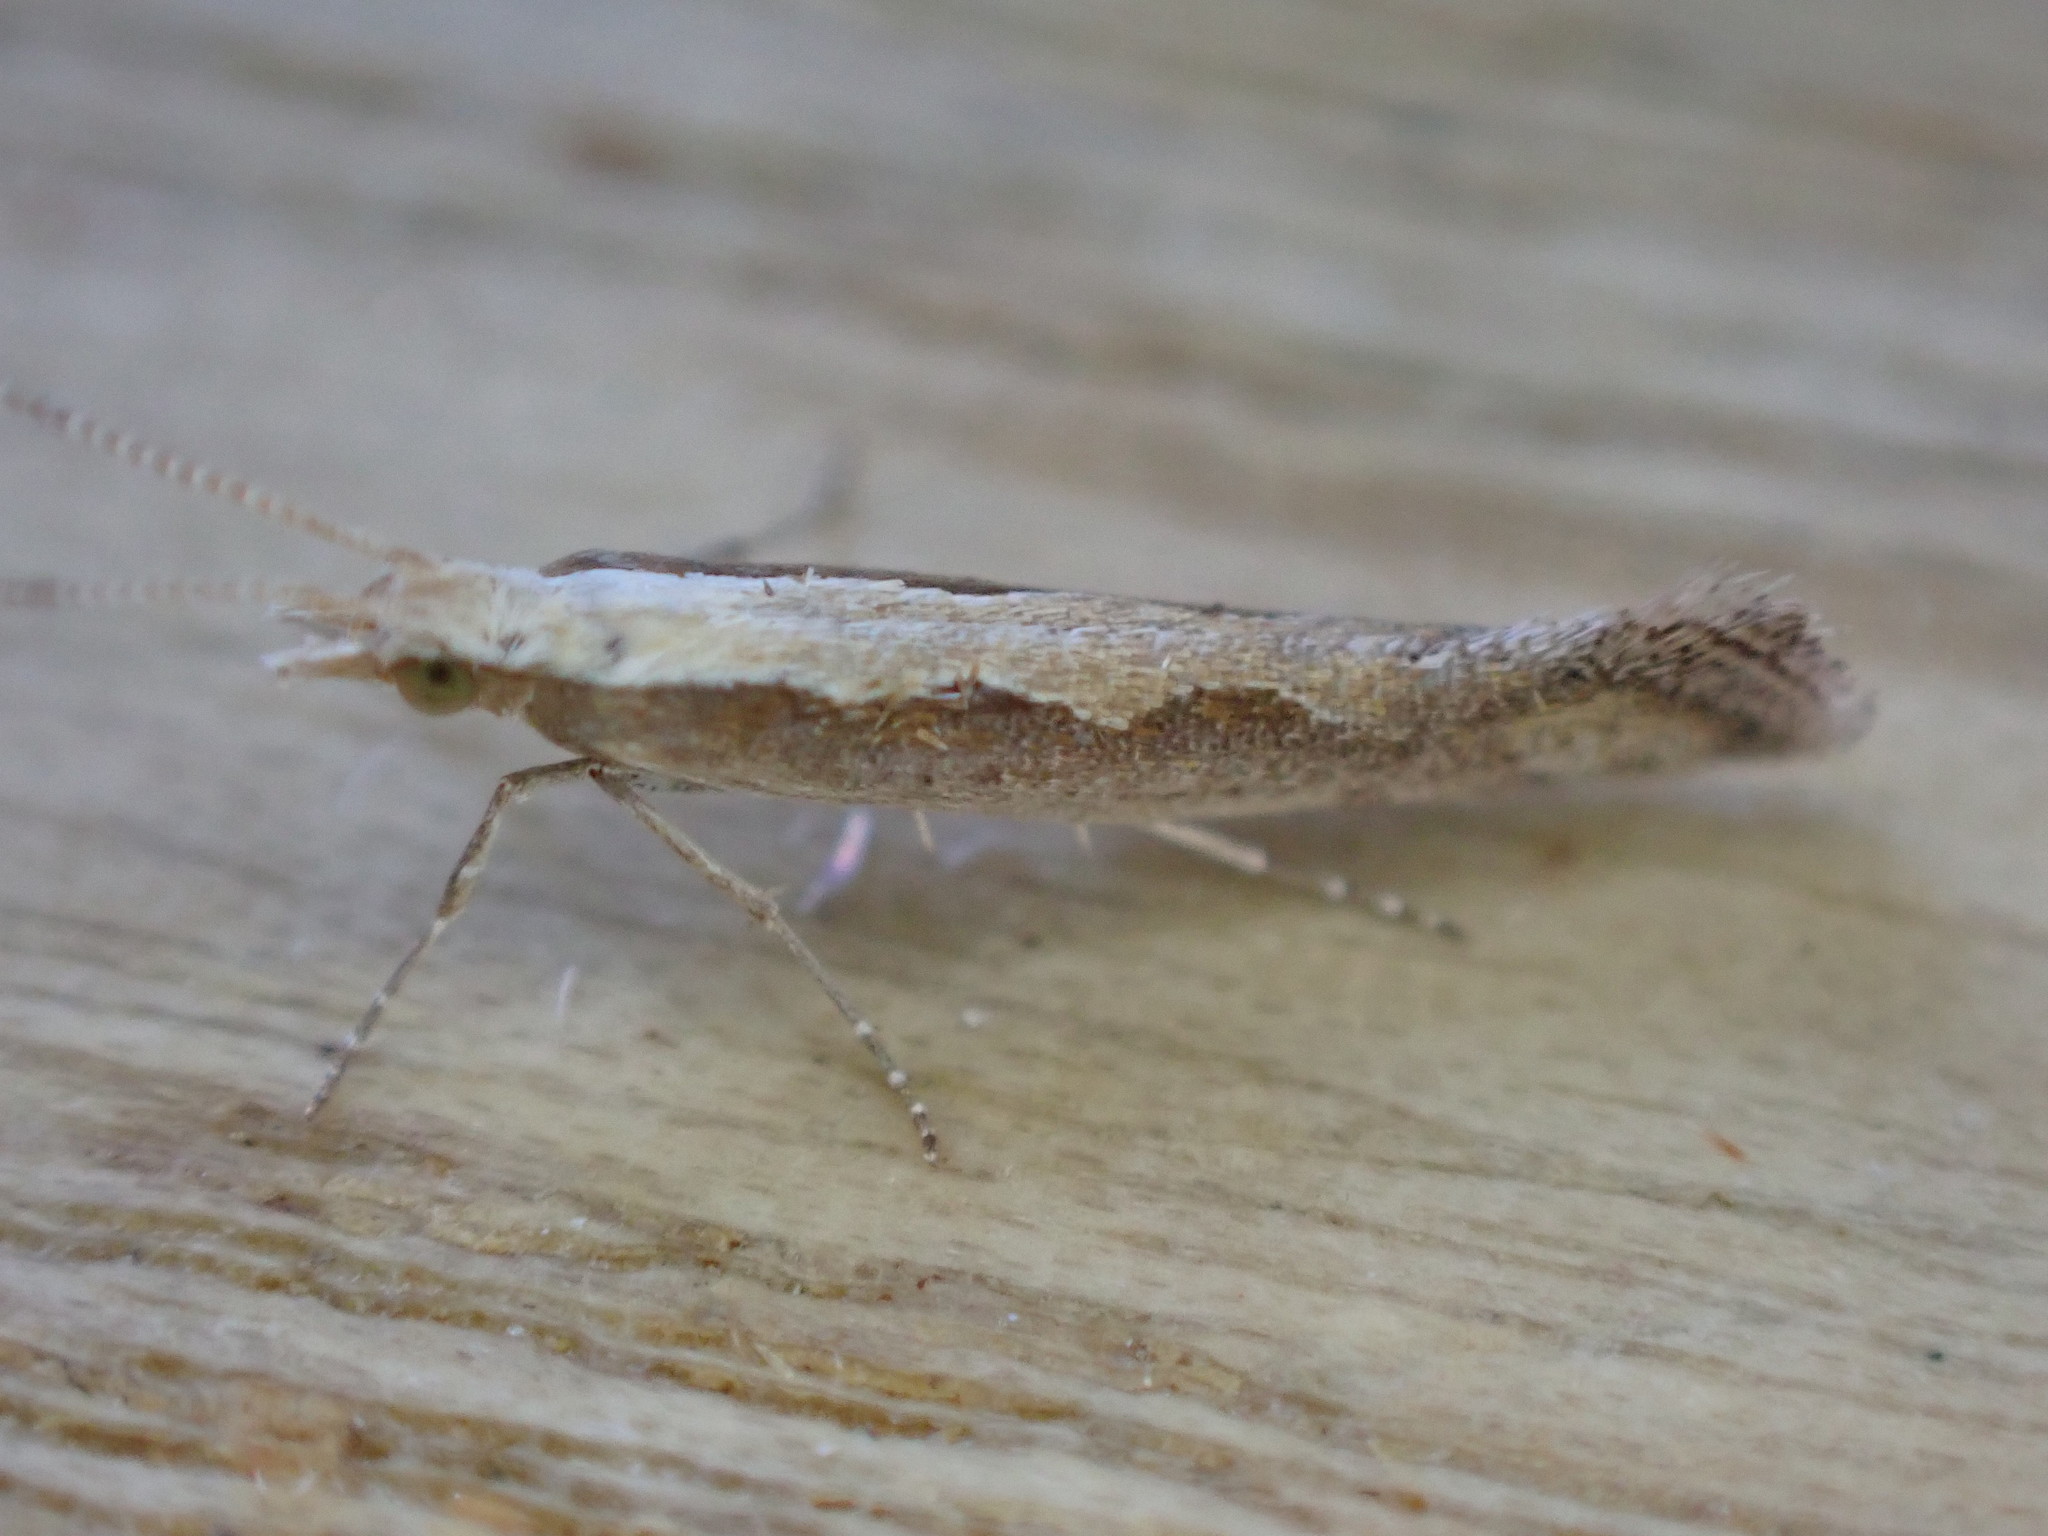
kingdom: Animalia
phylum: Arthropoda
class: Insecta
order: Lepidoptera
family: Plutellidae
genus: Plutella
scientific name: Plutella xylostella
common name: Diamond-back moth
